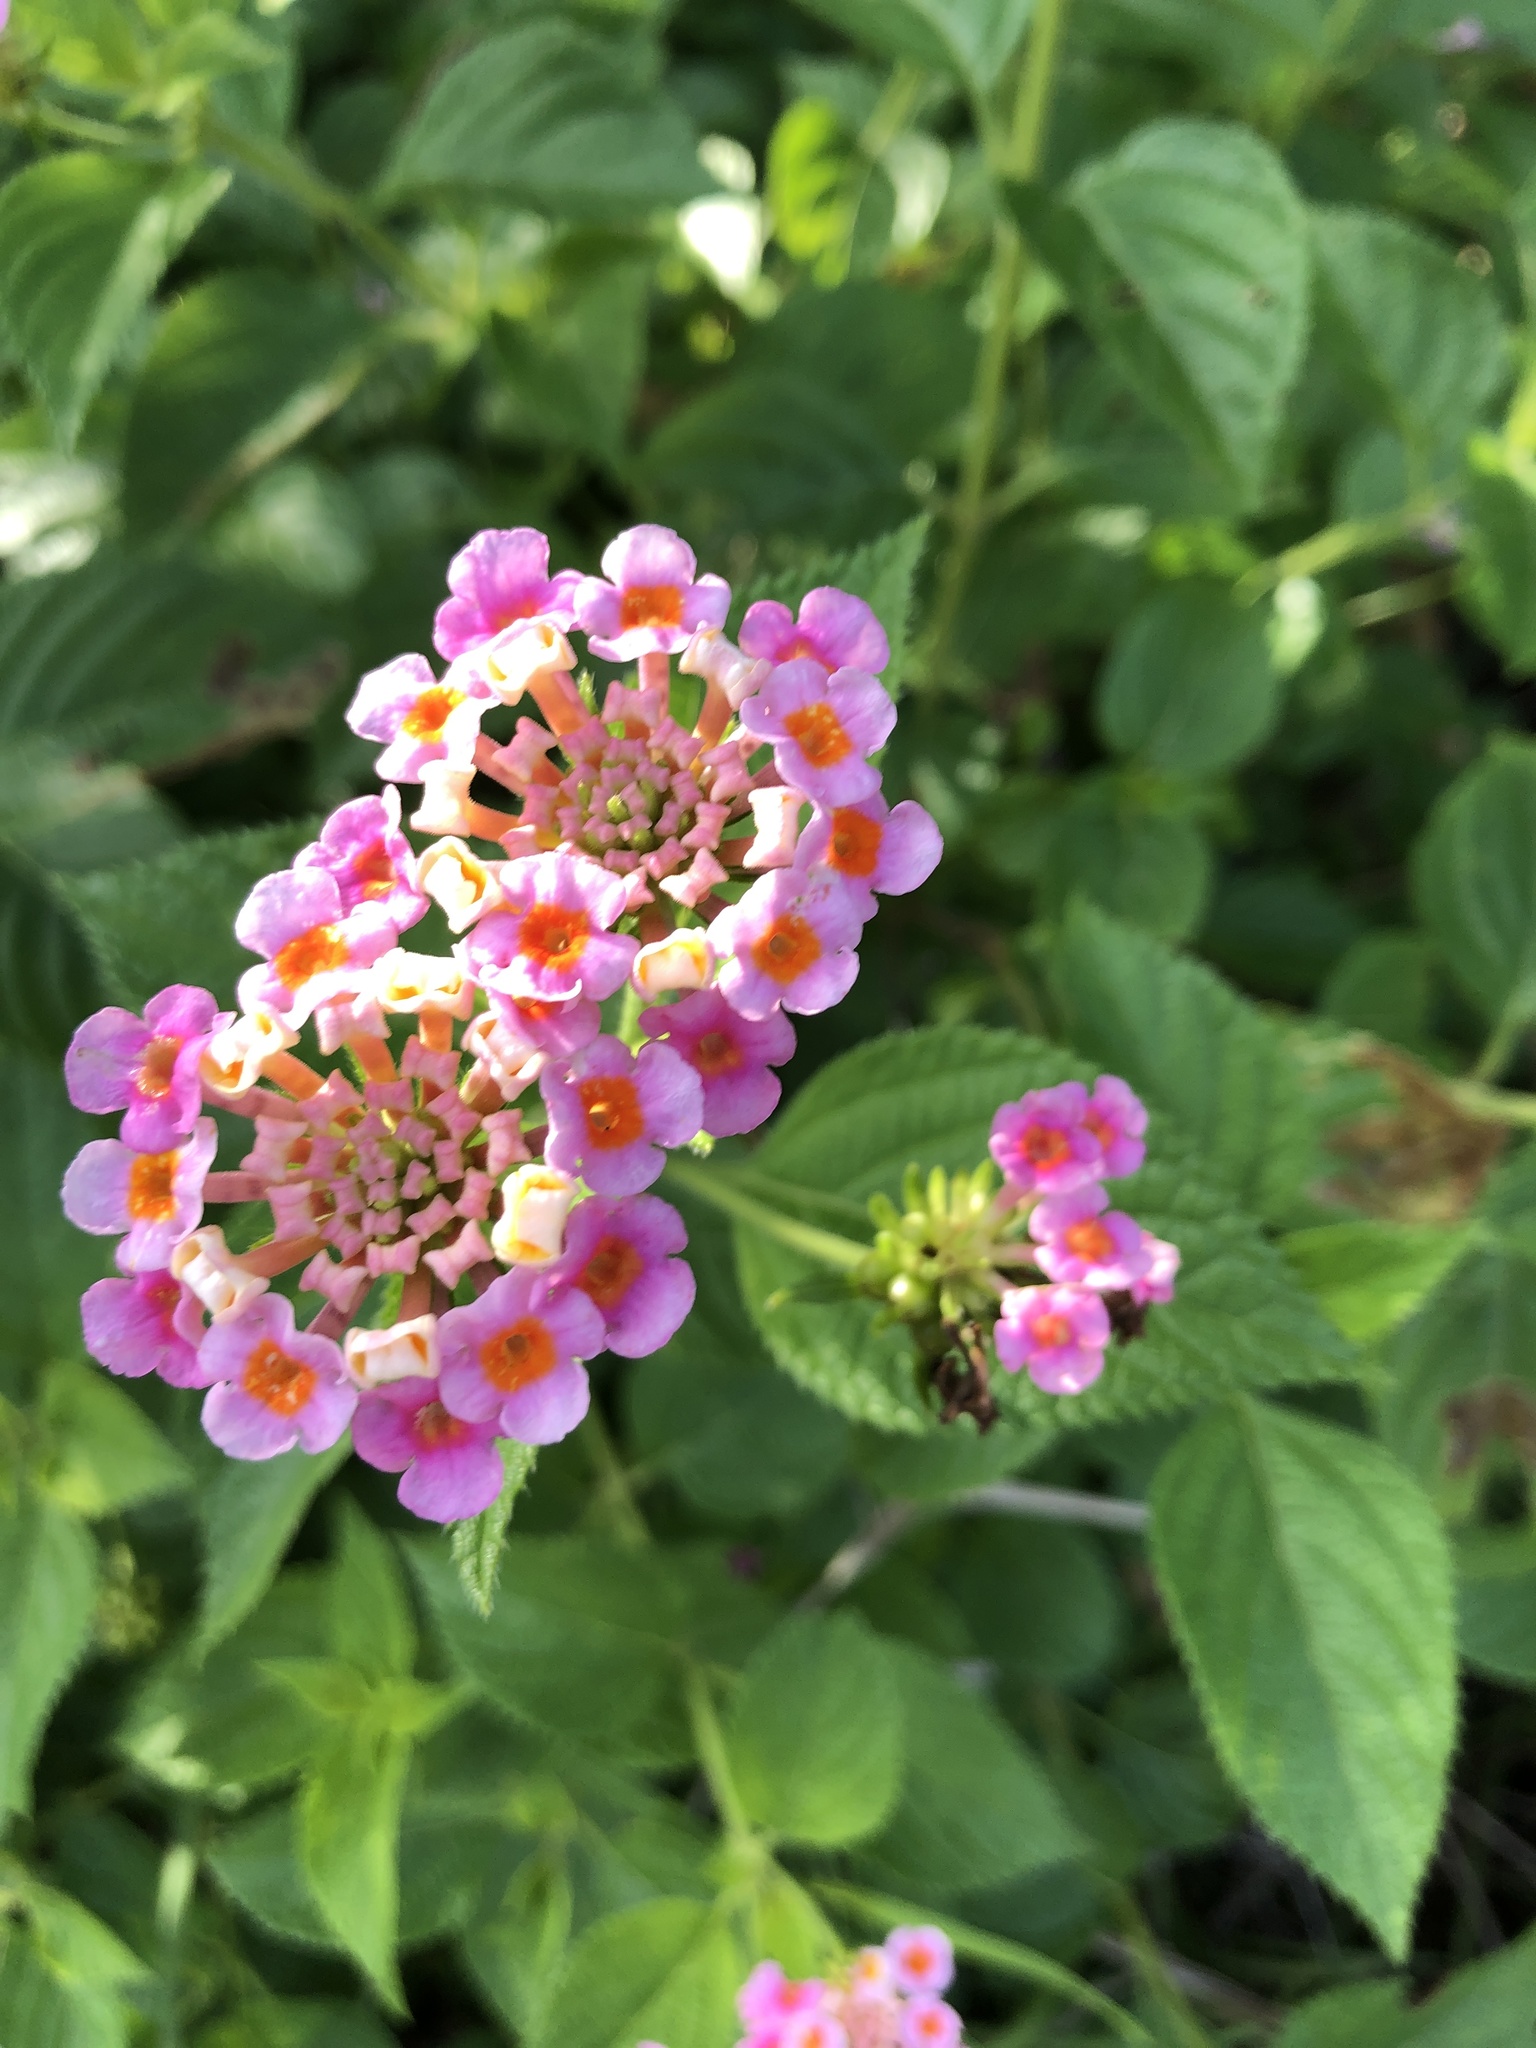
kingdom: Plantae
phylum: Tracheophyta
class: Magnoliopsida
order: Lamiales
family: Verbenaceae
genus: Lantana
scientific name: Lantana camara
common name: Lantana
